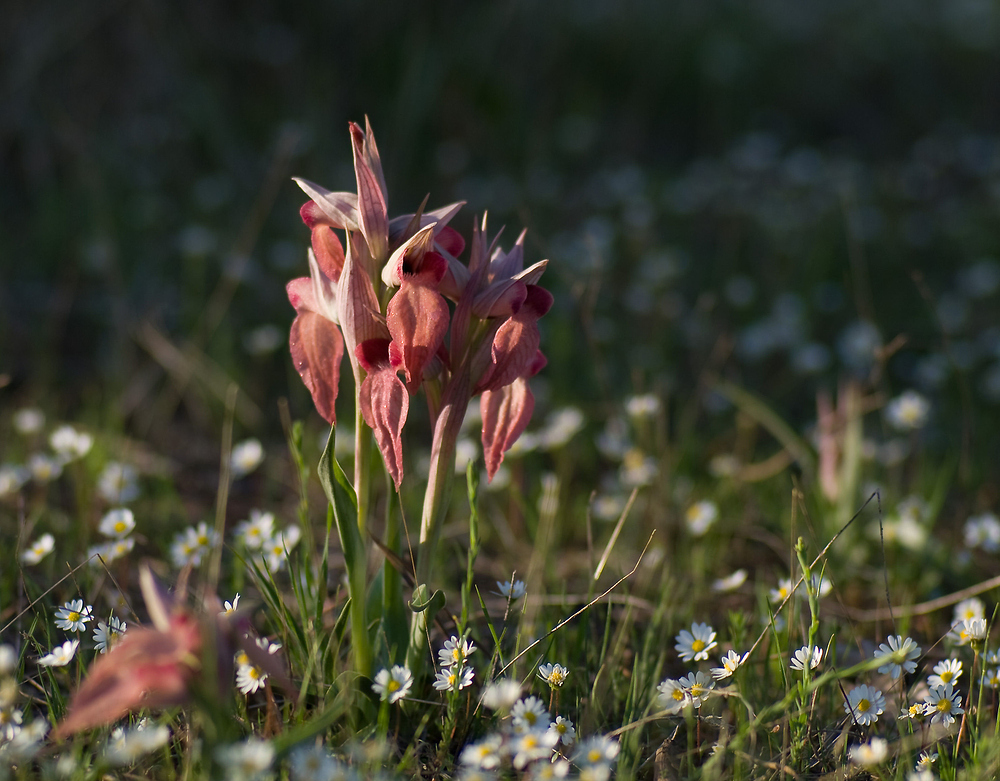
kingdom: Plantae
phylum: Tracheophyta
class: Liliopsida
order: Asparagales
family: Orchidaceae
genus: Serapias
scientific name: Serapias neglecta
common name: Neglected serapias
